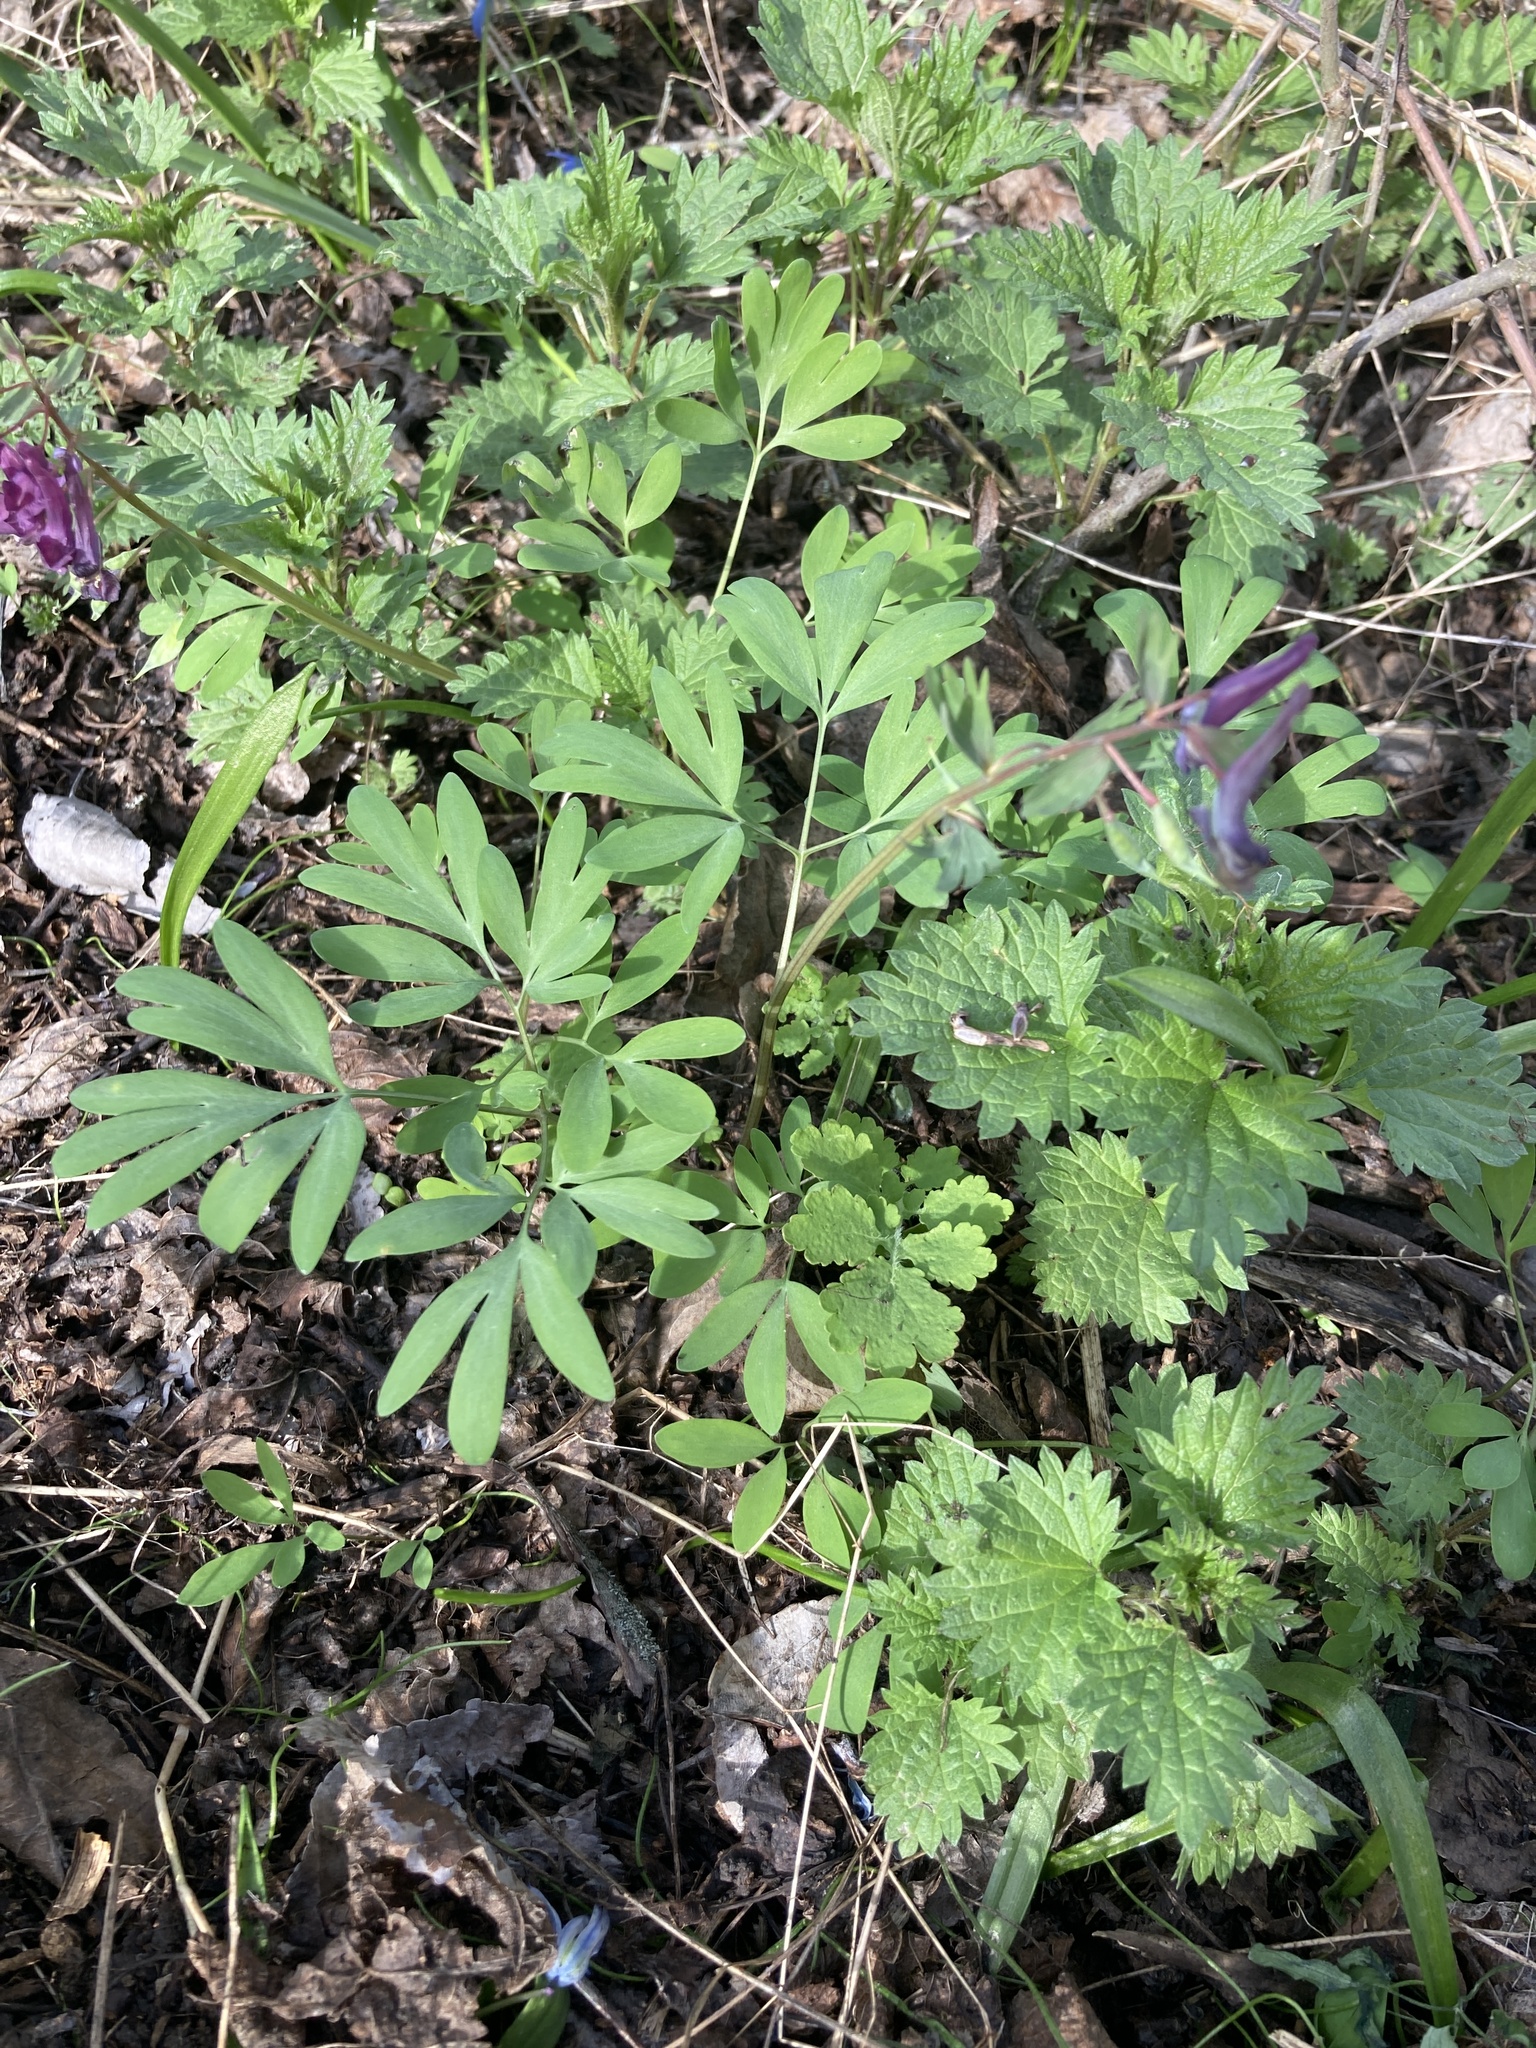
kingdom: Plantae
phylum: Tracheophyta
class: Magnoliopsida
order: Ranunculales
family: Papaveraceae
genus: Corydalis
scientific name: Corydalis solida
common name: Bird-in-a-bush
